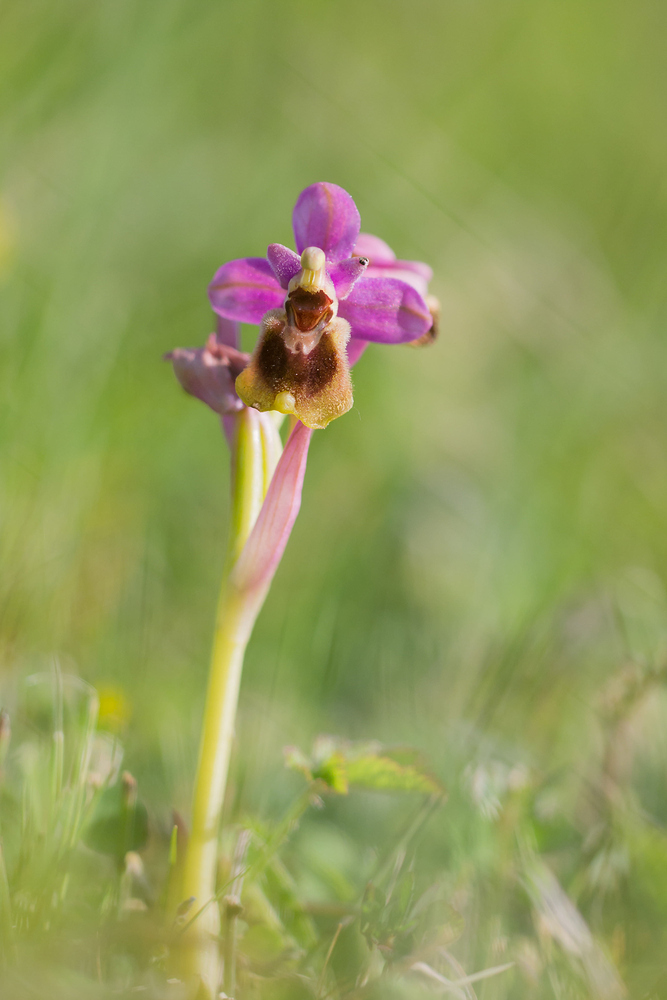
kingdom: Plantae
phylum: Tracheophyta
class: Liliopsida
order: Asparagales
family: Orchidaceae
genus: Ophrys
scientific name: Ophrys tenthredinifera
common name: Sawfly orchid
